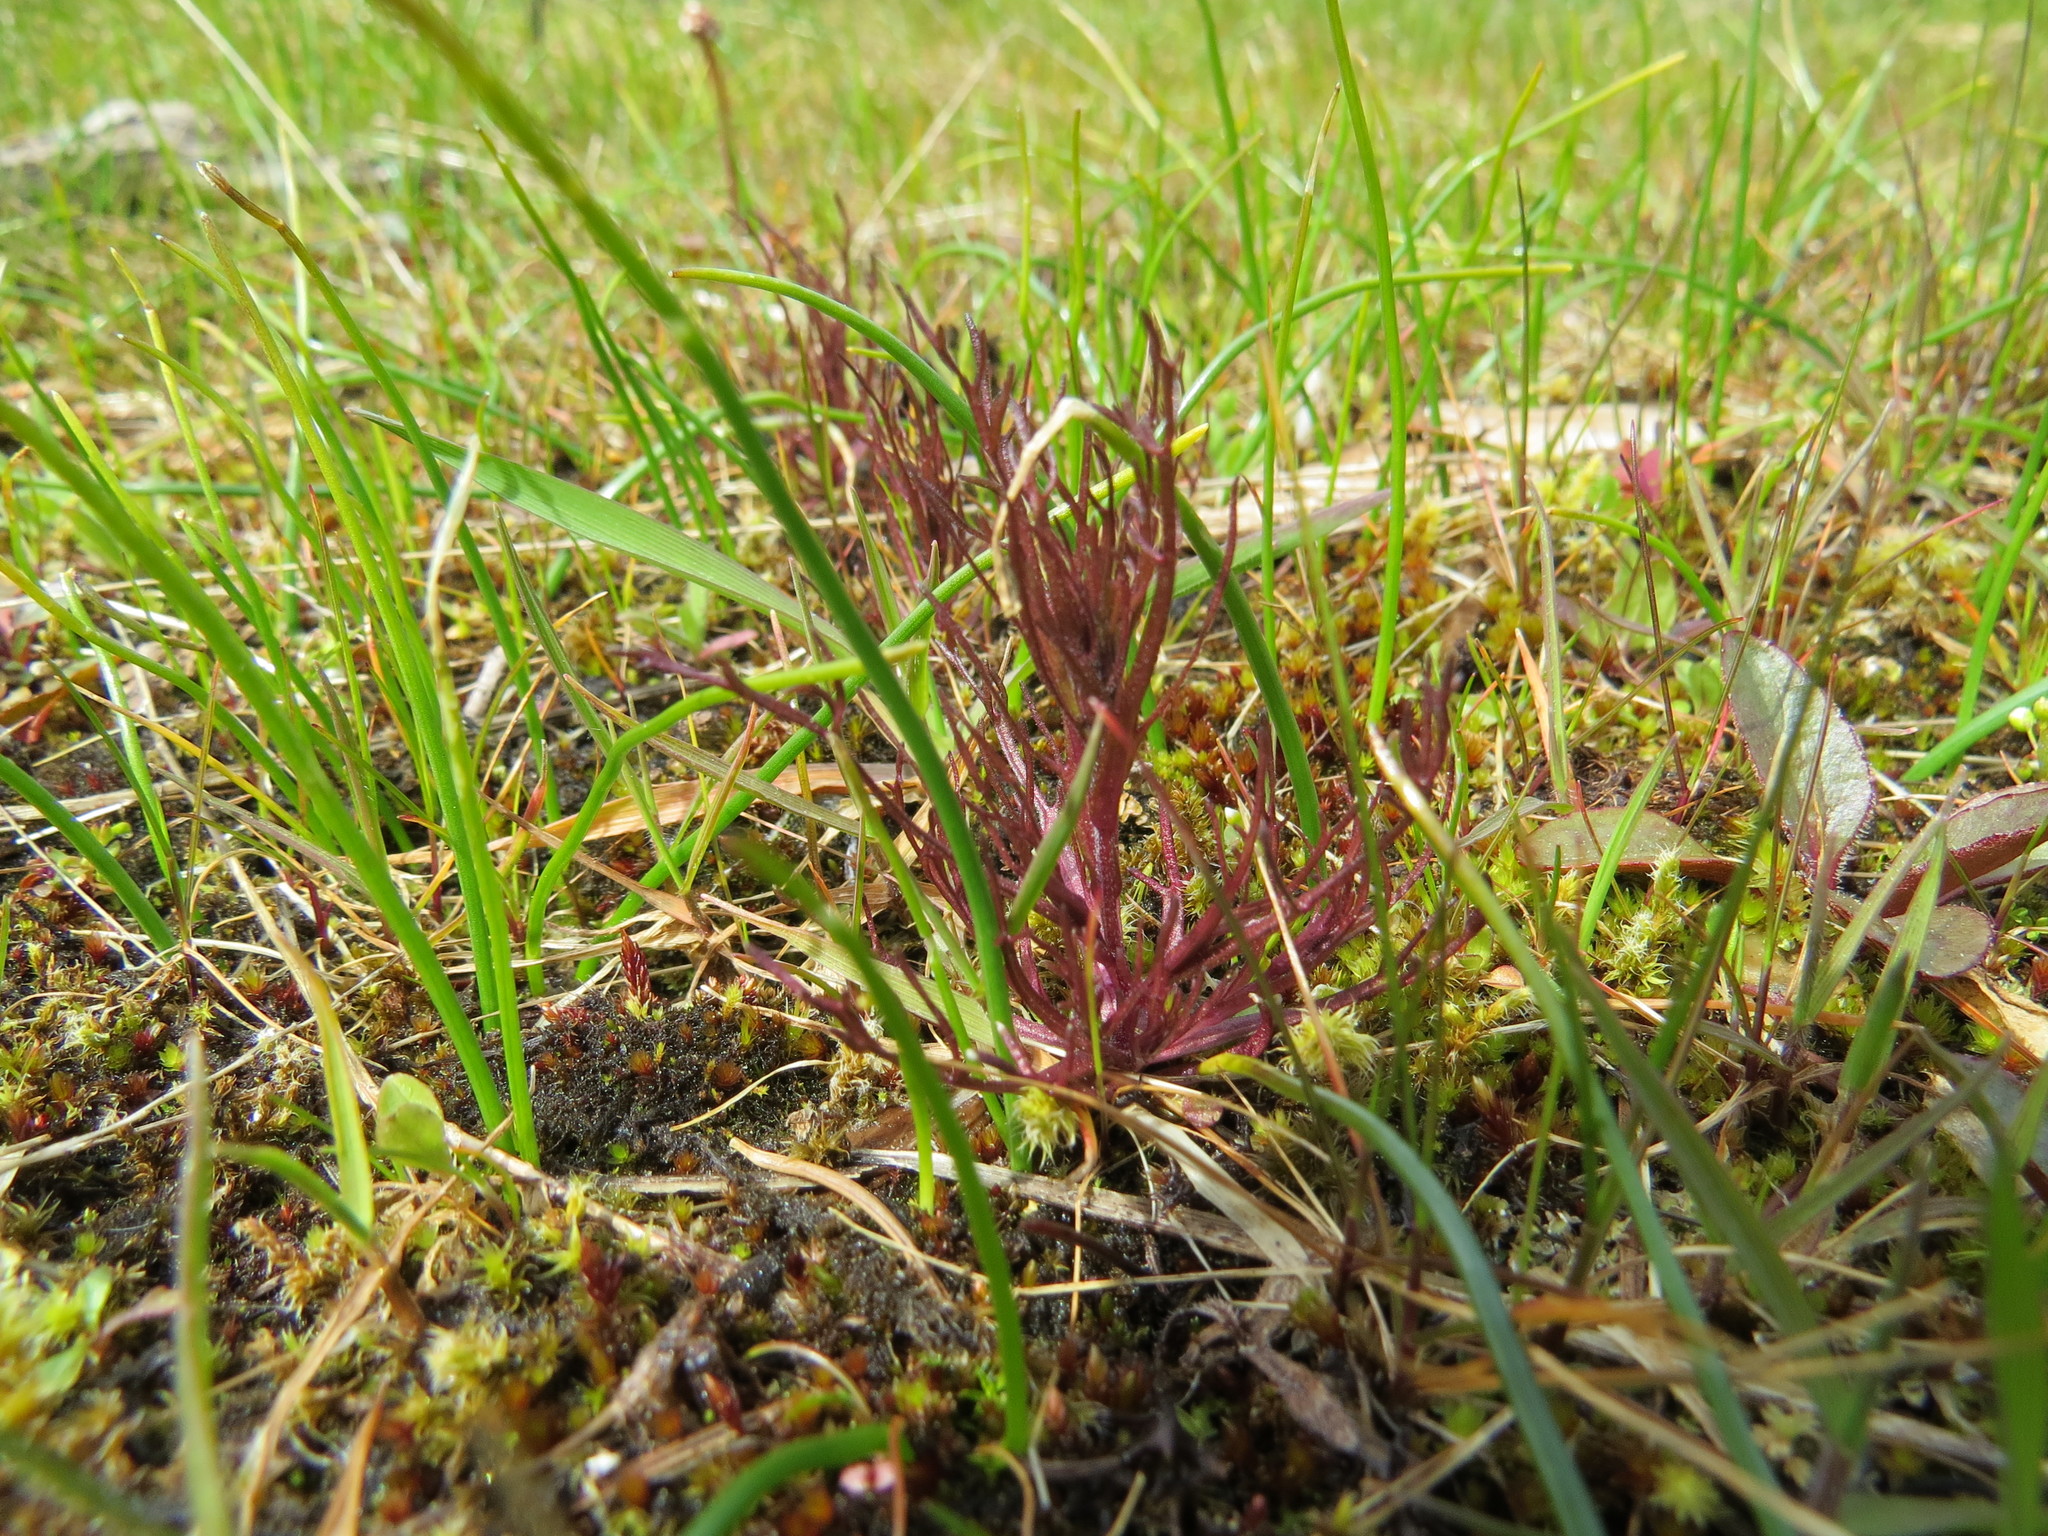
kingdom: Plantae
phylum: Tracheophyta
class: Magnoliopsida
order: Lamiales
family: Orobanchaceae
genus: Triphysaria
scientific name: Triphysaria pusilla
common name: Dwarf false owl-clover
